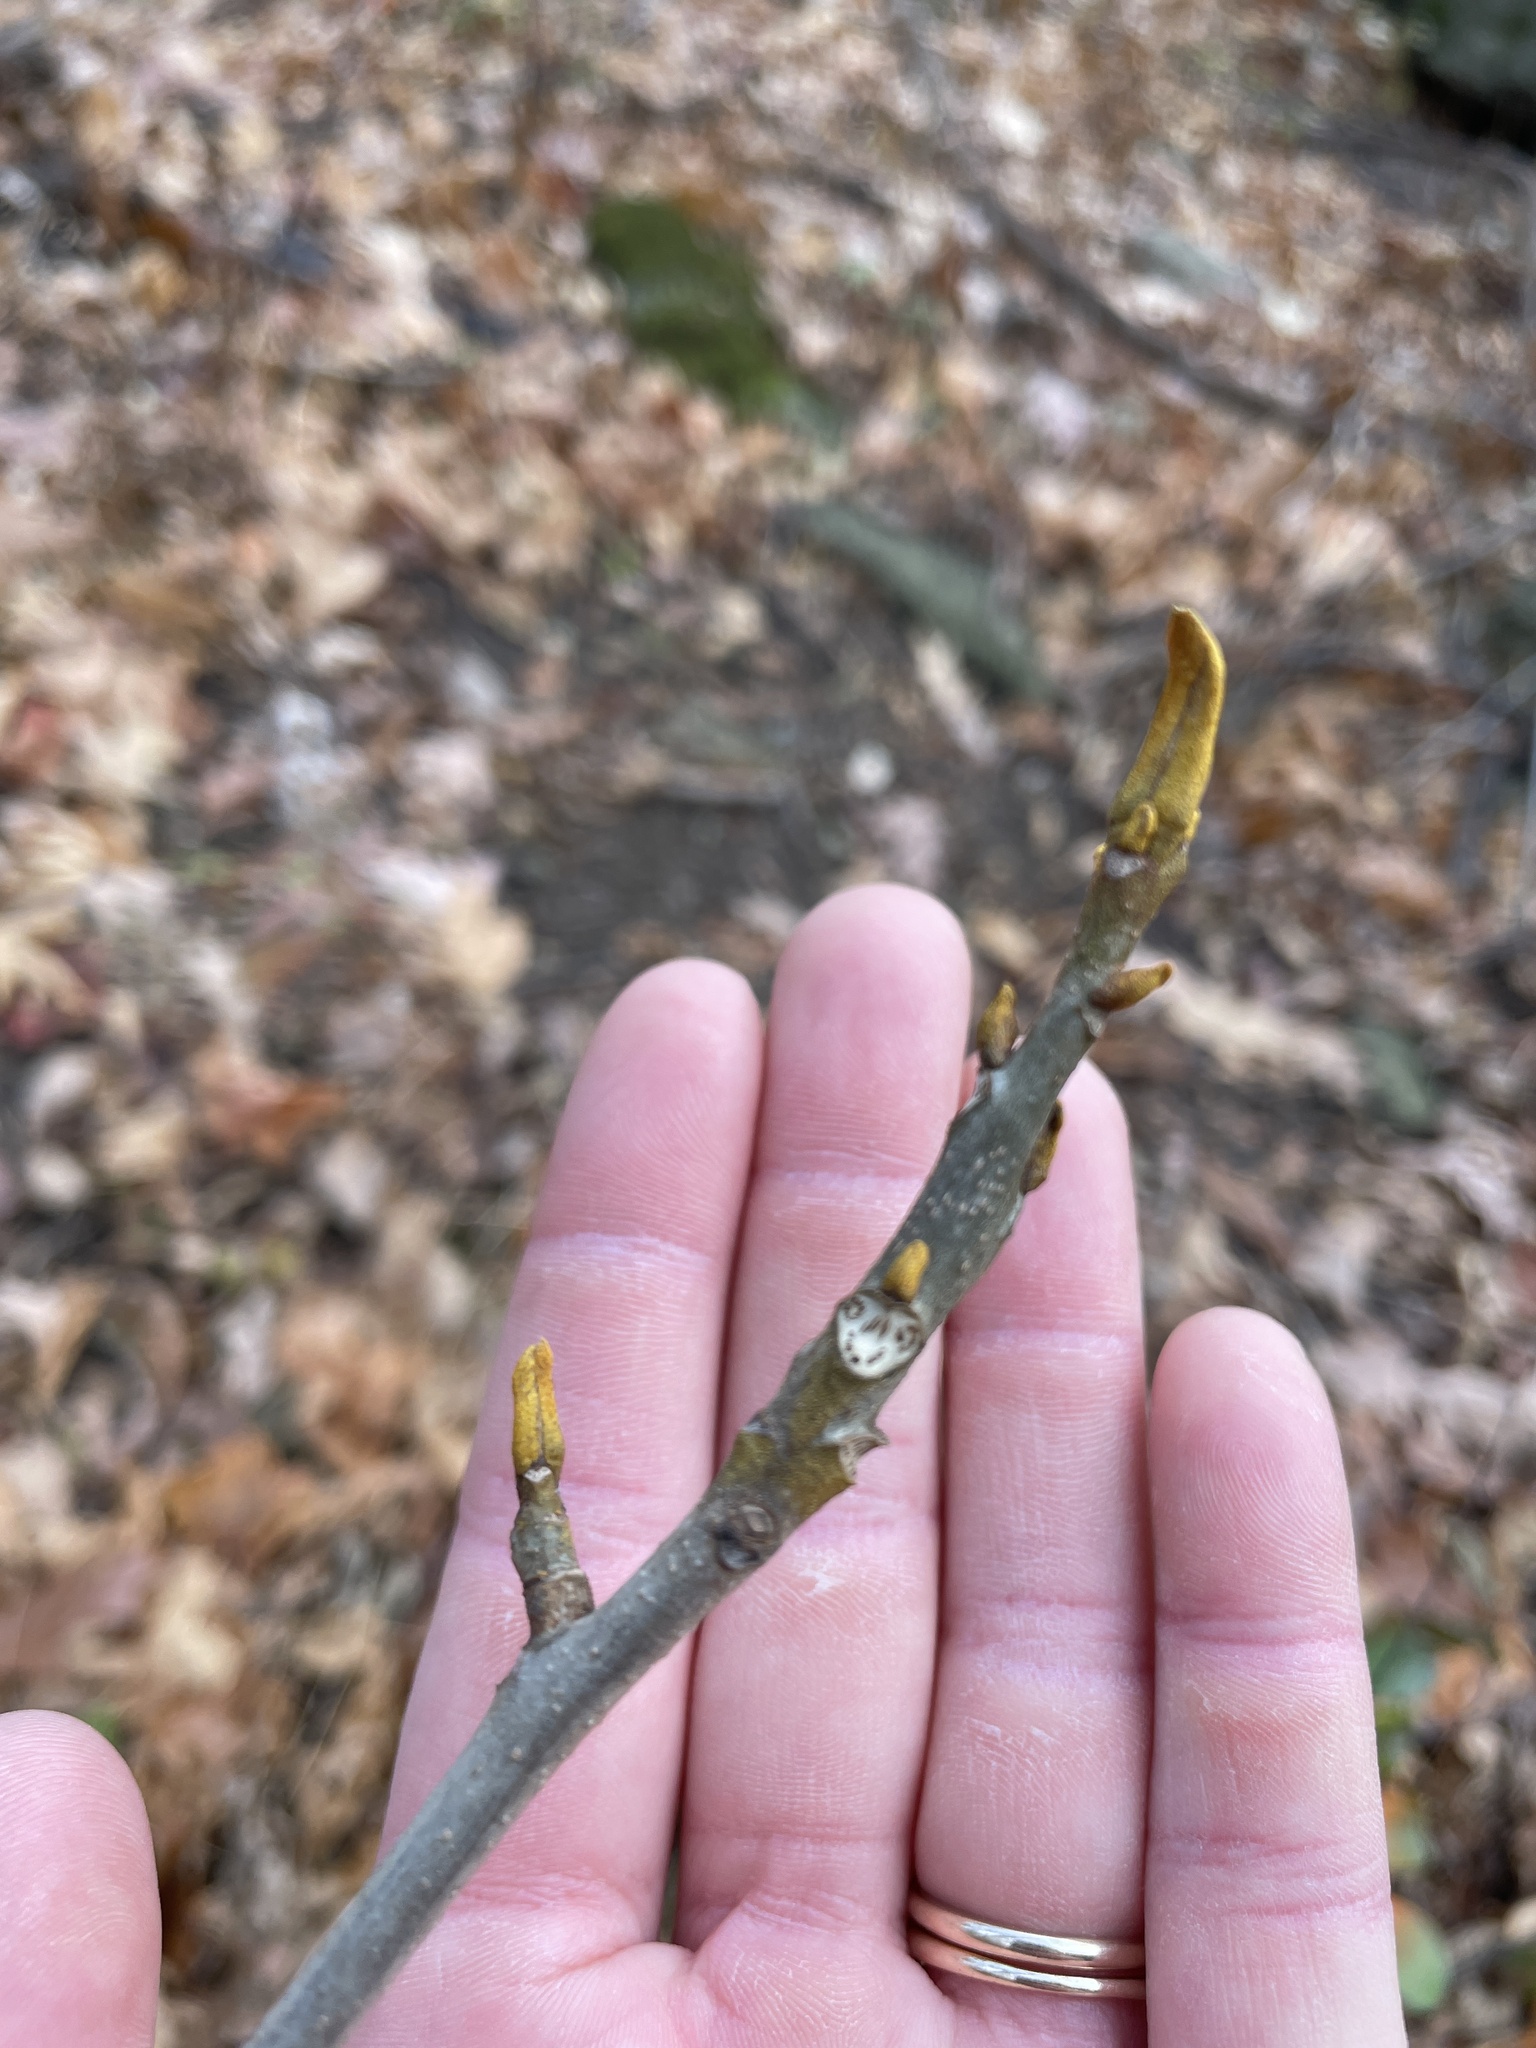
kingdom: Plantae
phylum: Tracheophyta
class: Magnoliopsida
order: Fagales
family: Juglandaceae
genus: Carya
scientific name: Carya cordiformis
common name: Bitternut hickory
